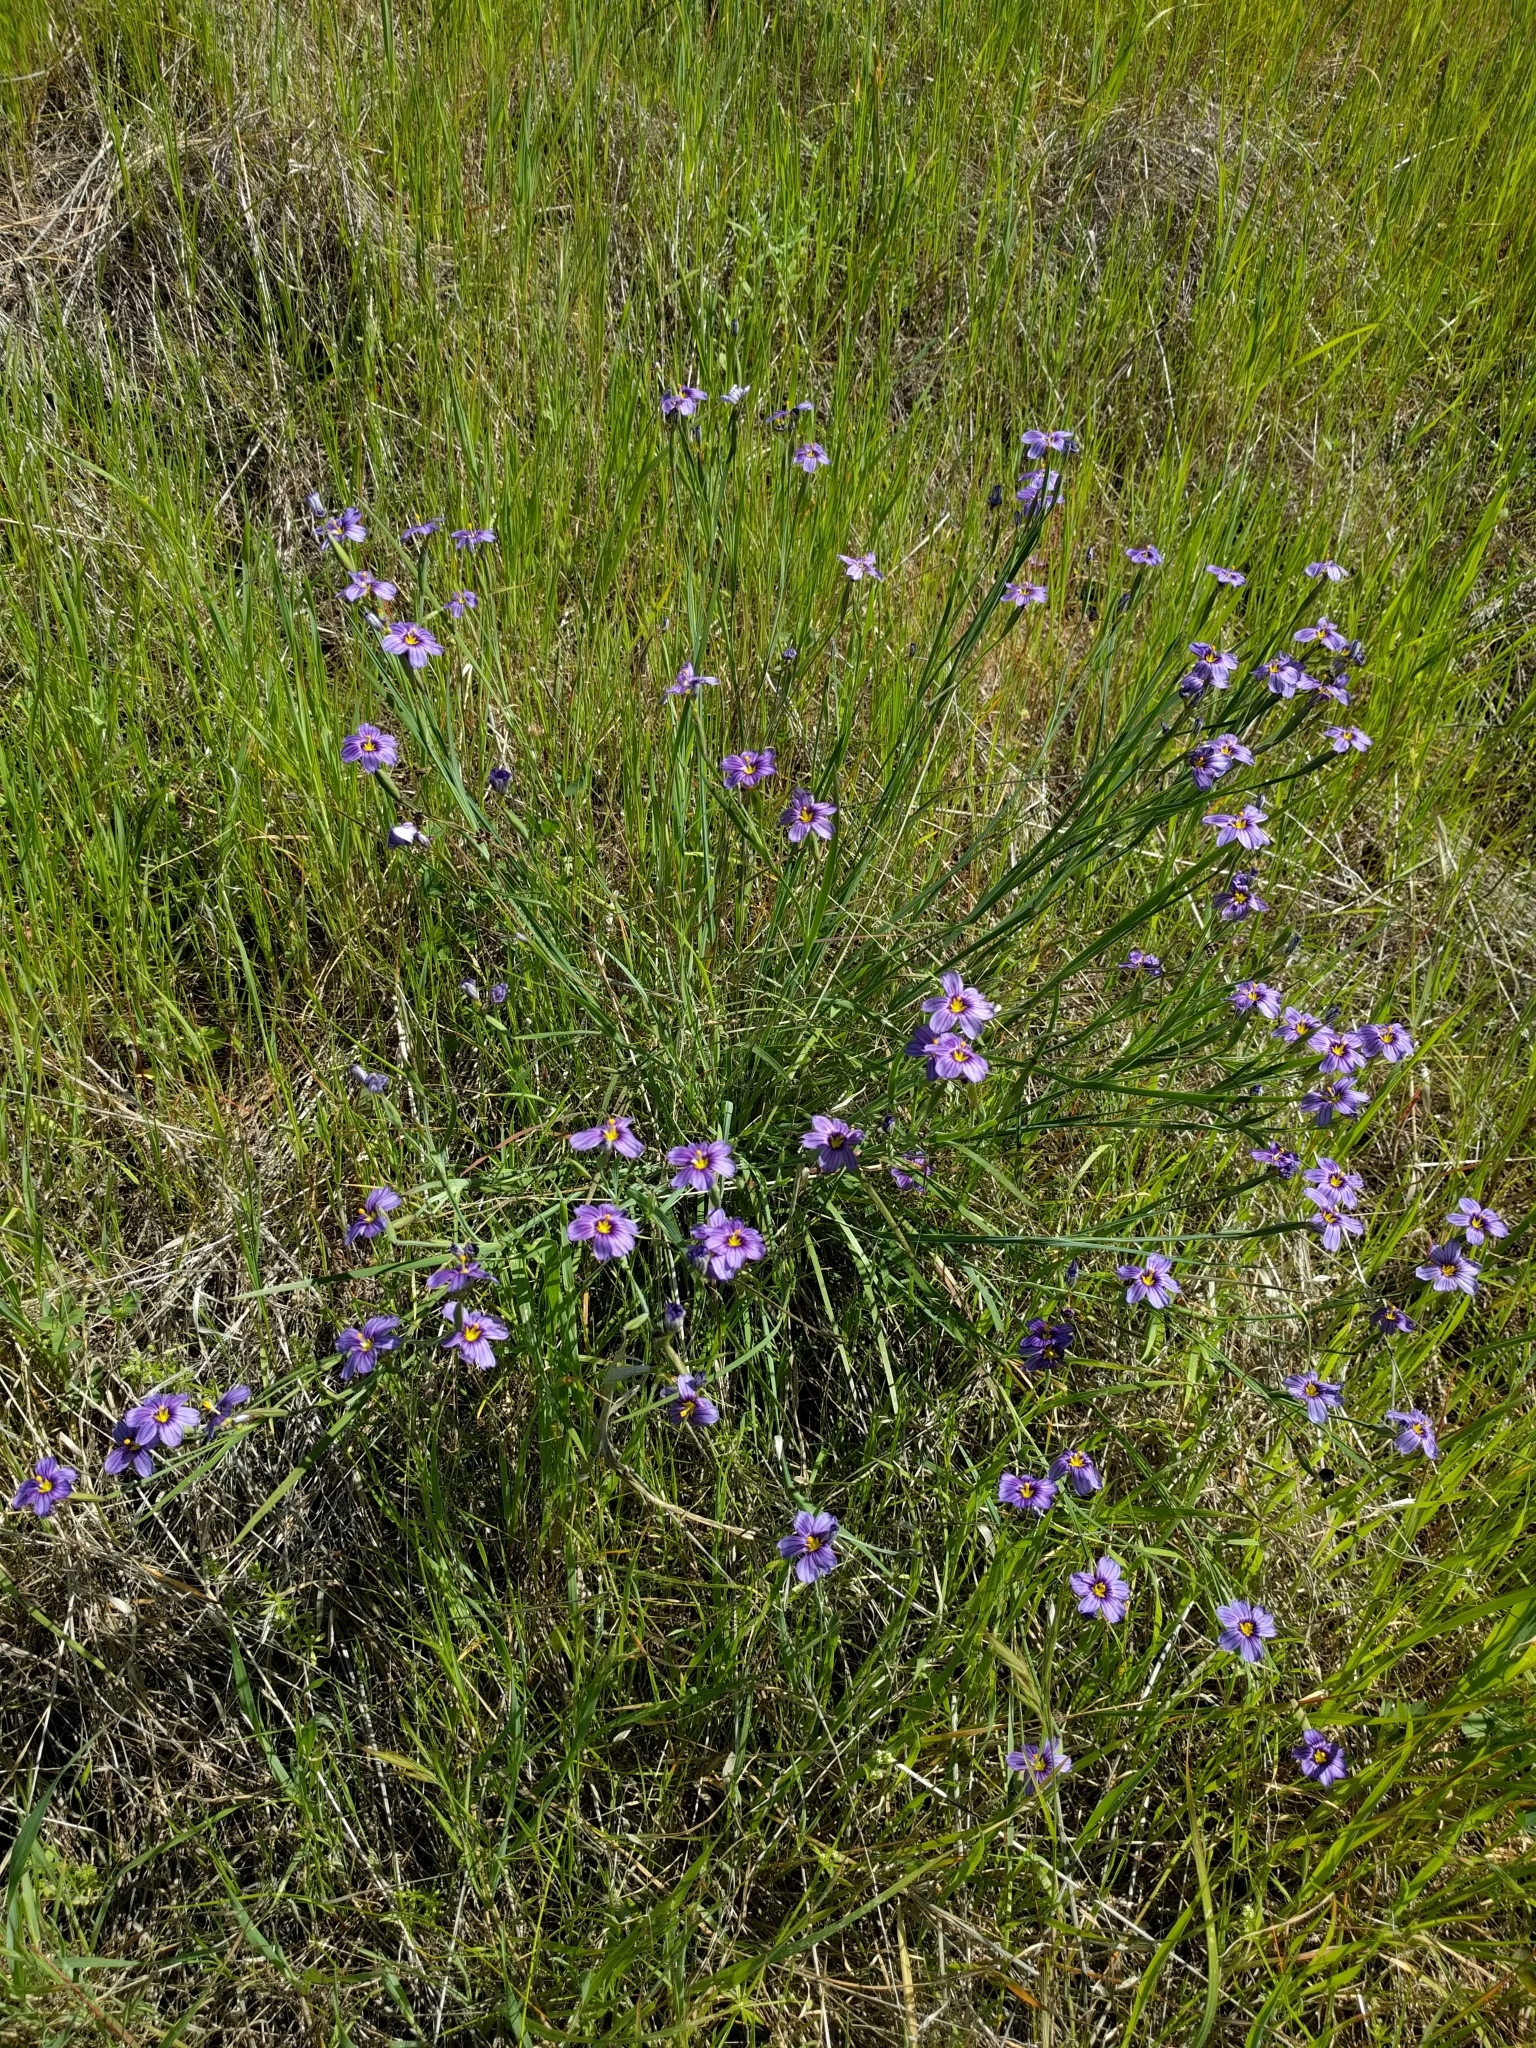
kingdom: Plantae
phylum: Tracheophyta
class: Liliopsida
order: Asparagales
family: Iridaceae
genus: Sisyrinchium
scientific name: Sisyrinchium bellum
